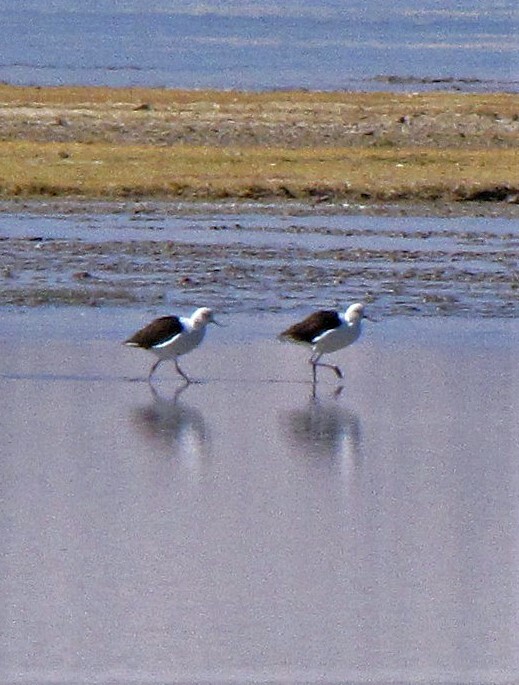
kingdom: Animalia
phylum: Chordata
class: Aves
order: Charadriiformes
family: Recurvirostridae
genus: Recurvirostra
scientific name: Recurvirostra andina
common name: Andean avocet
